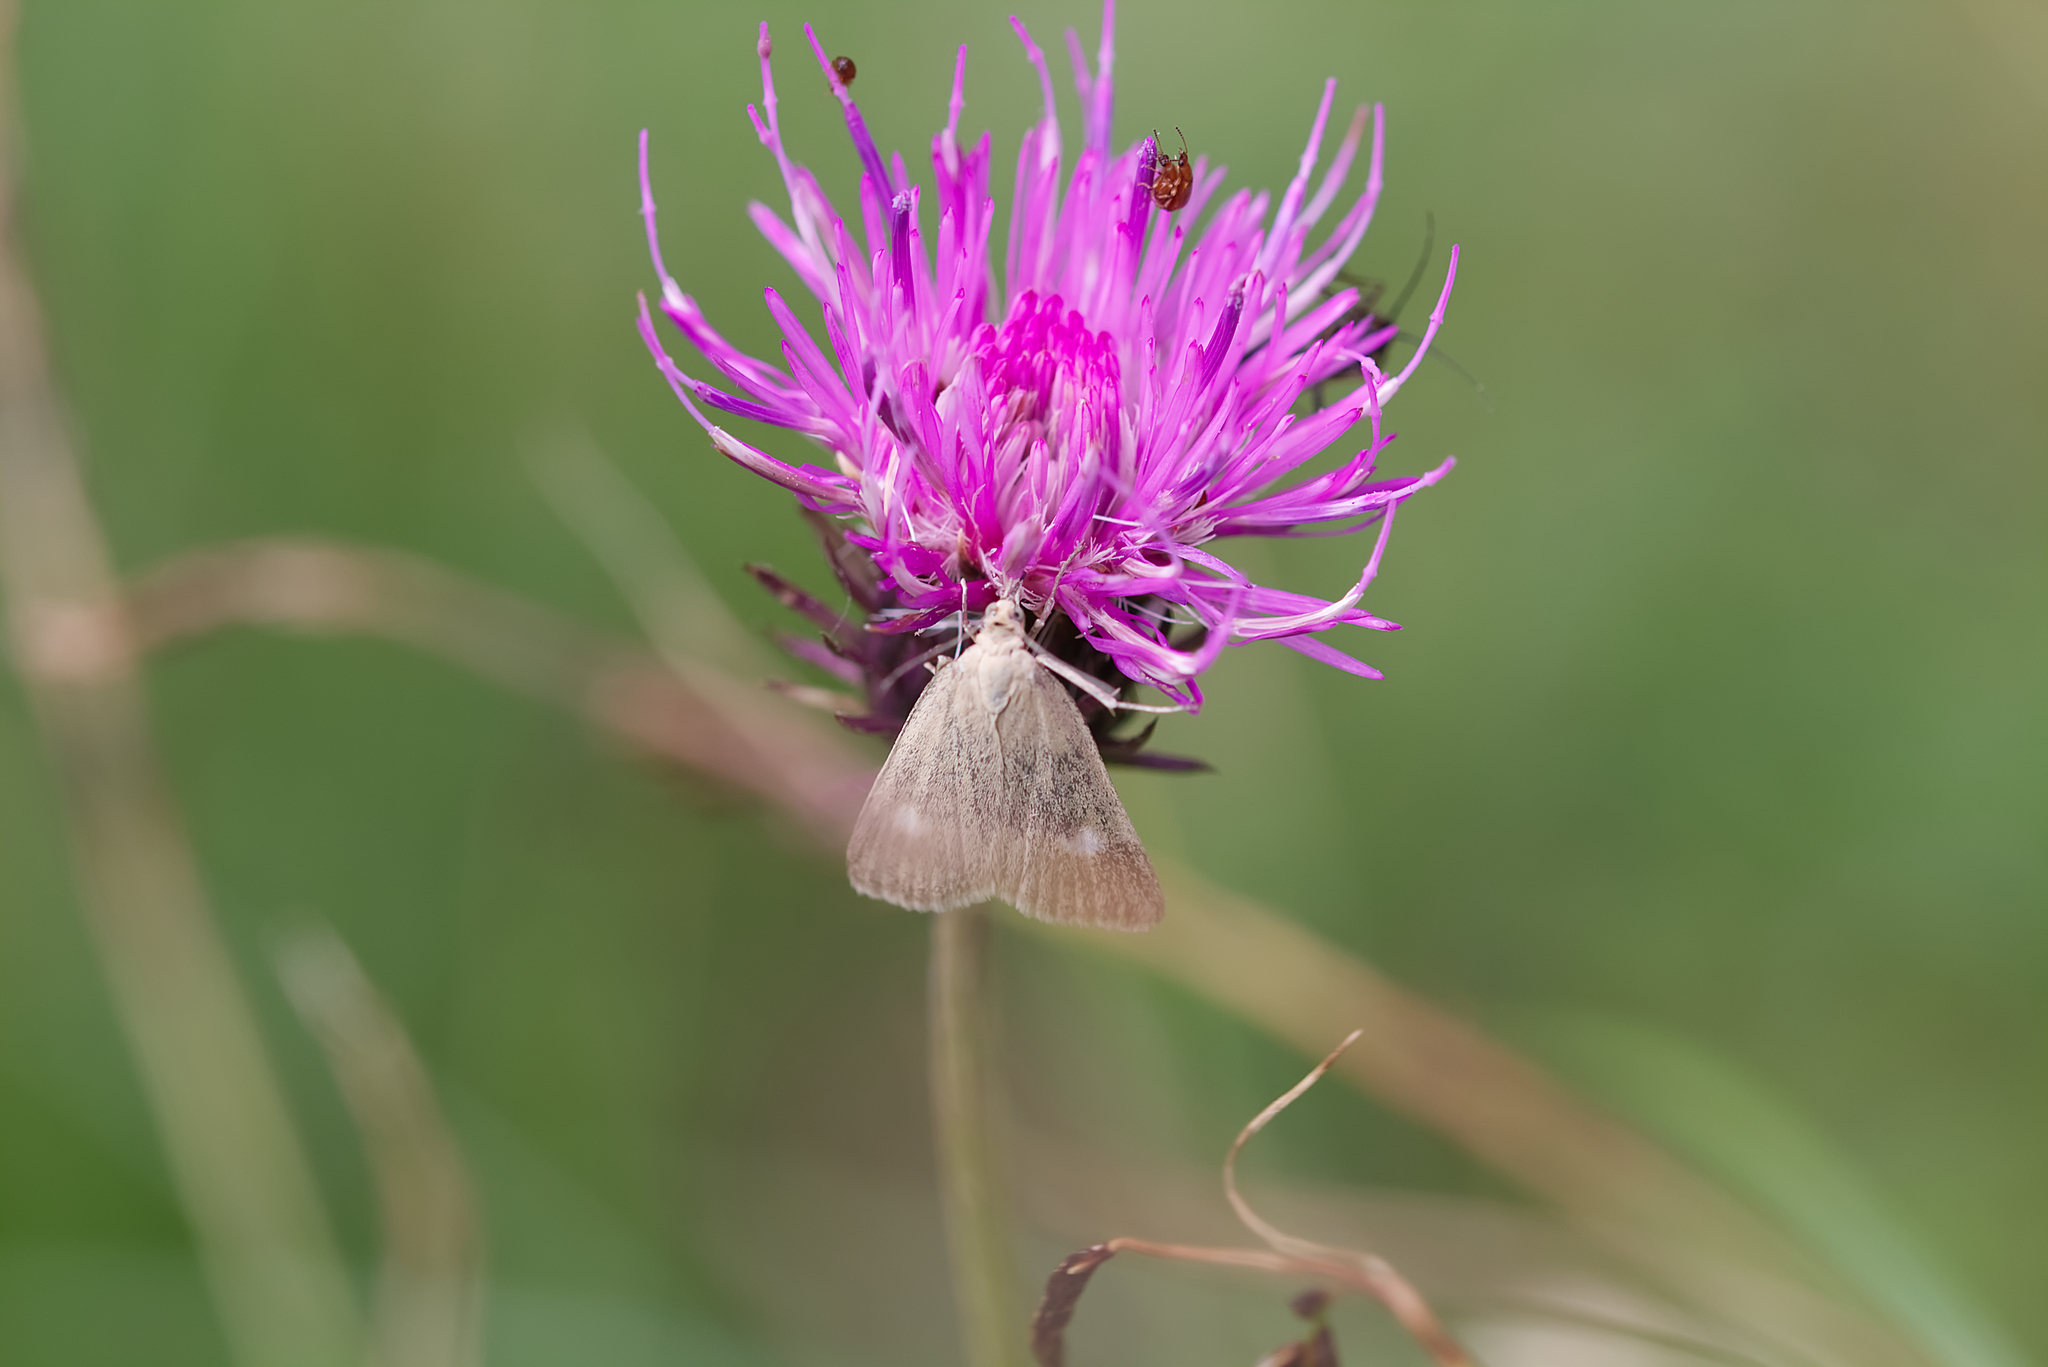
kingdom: Animalia
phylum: Arthropoda
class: Insecta
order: Lepidoptera
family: Crambidae
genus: Pyrausta
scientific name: Pyrausta alpinalis
